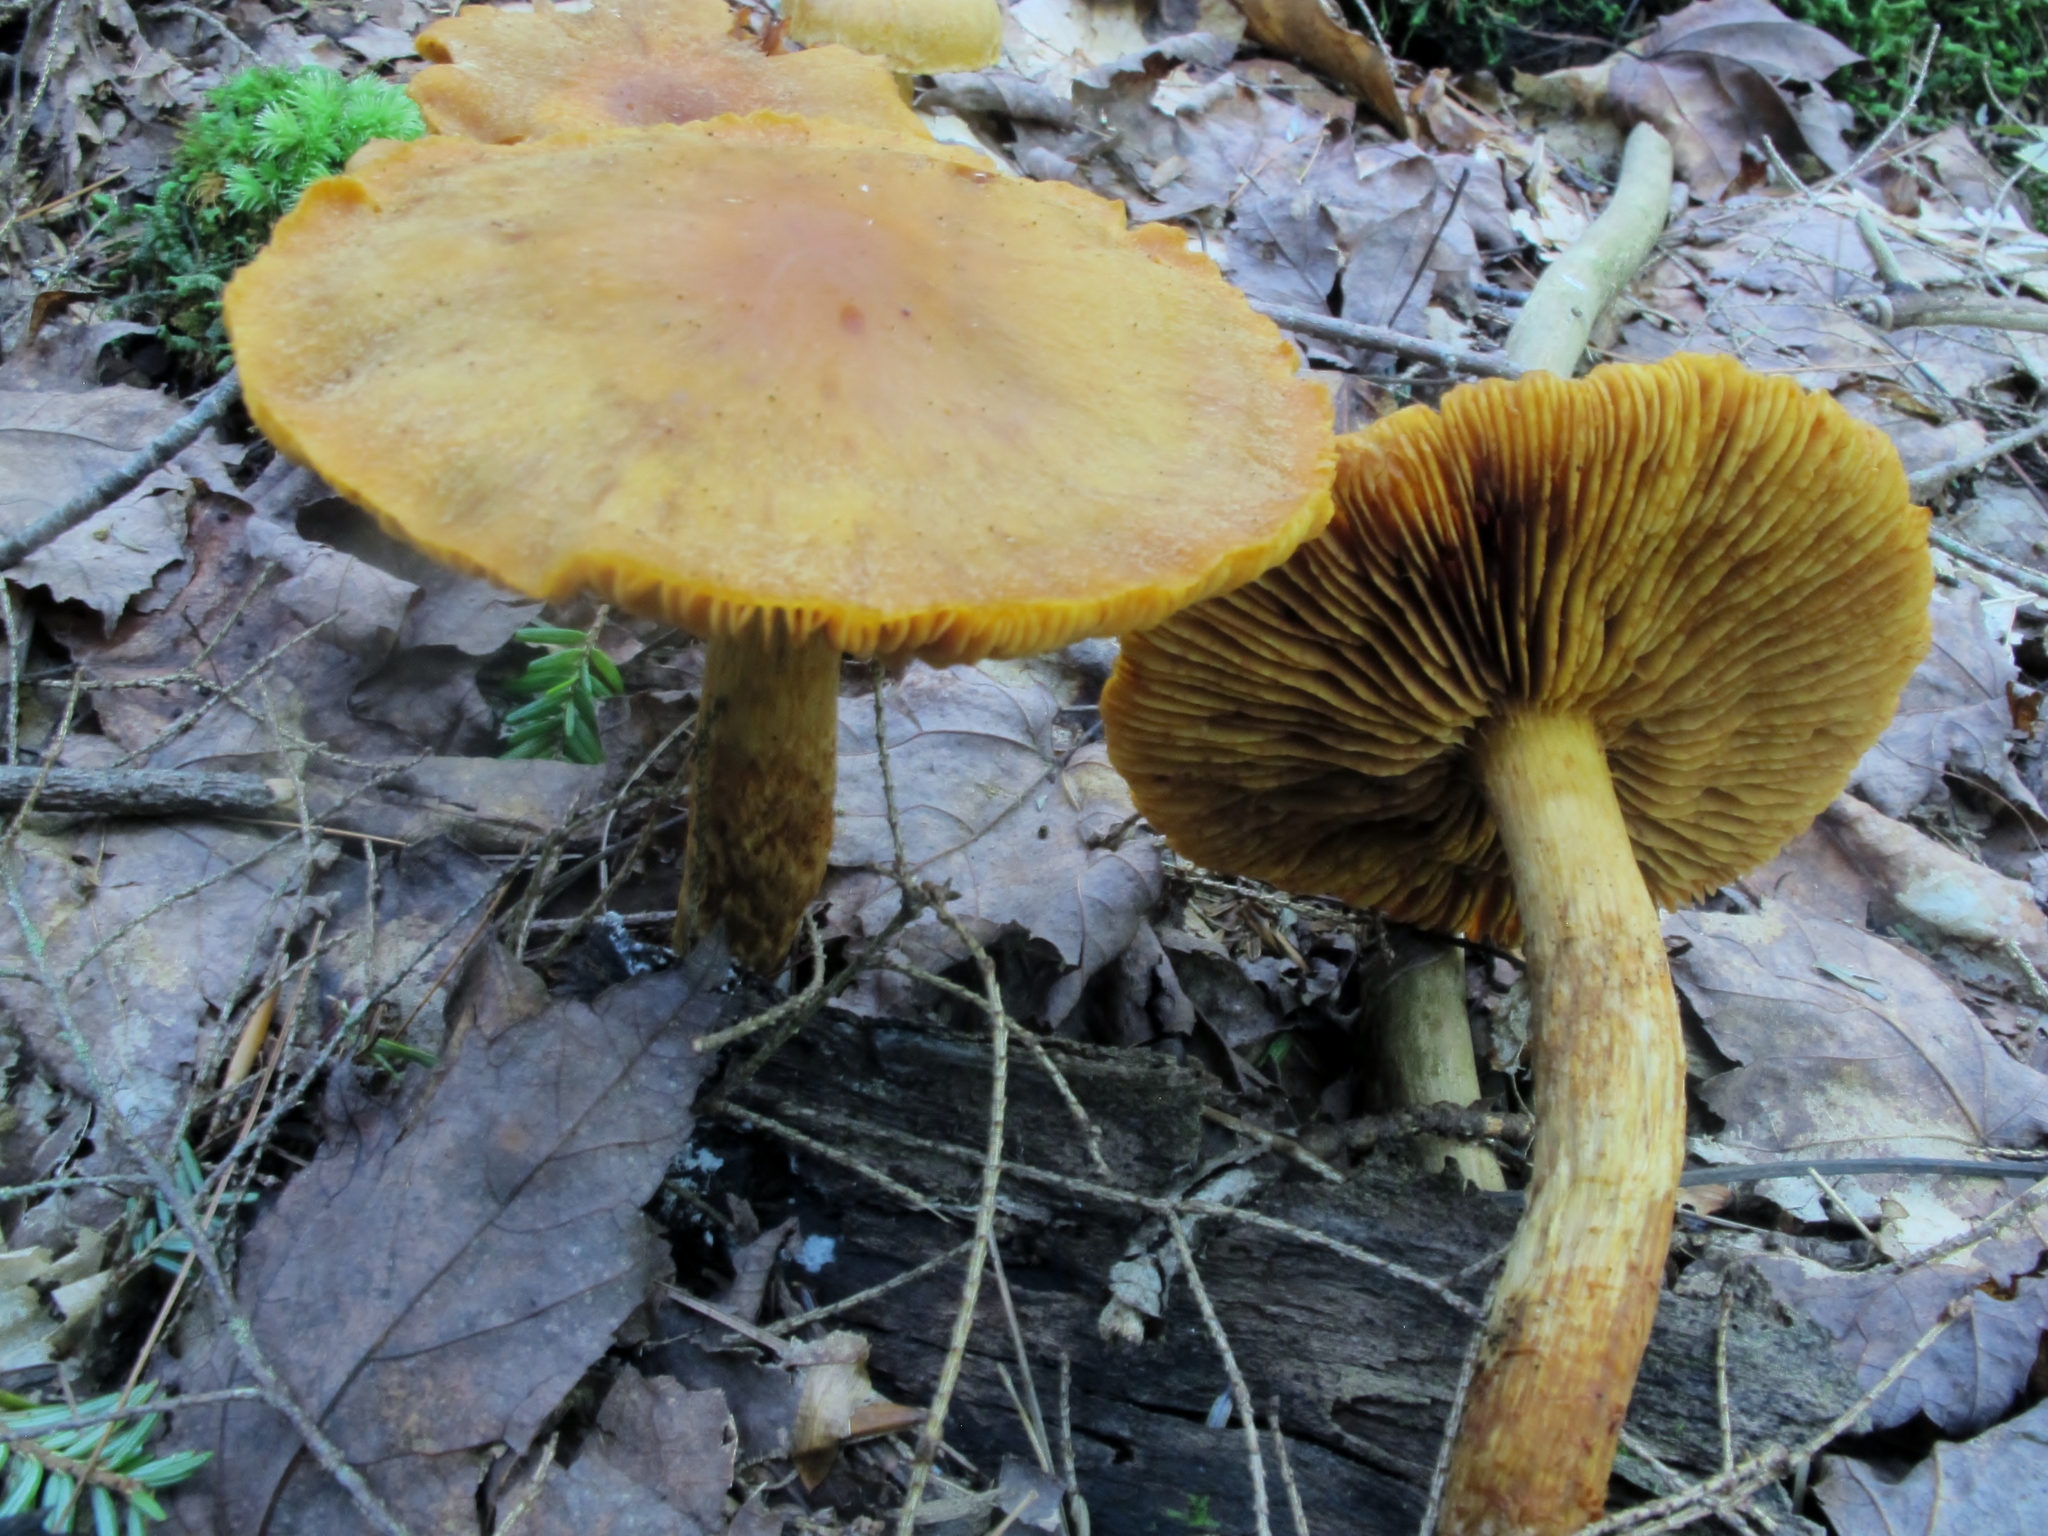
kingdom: Fungi
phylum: Basidiomycota
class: Agaricomycetes
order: Agaricales
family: Cortinariaceae
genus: Aureonarius
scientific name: Aureonarius limonius
